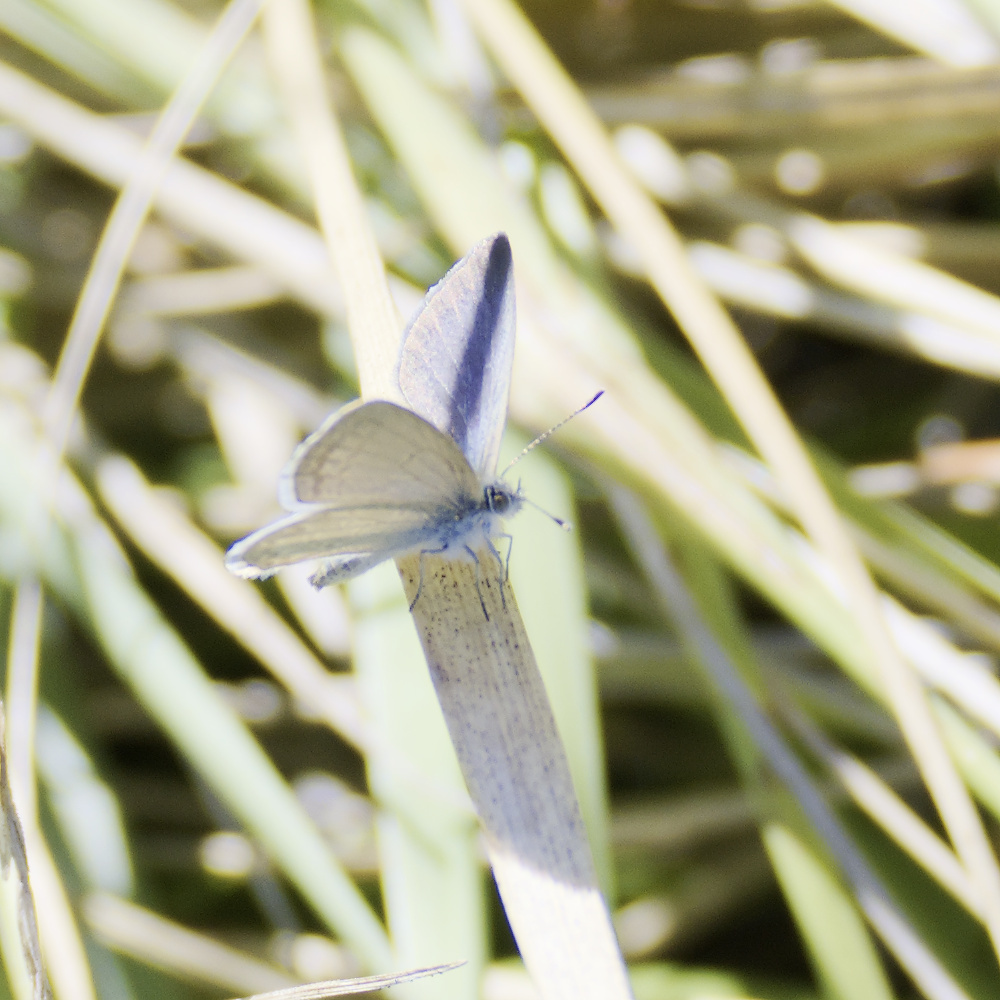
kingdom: Animalia
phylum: Arthropoda
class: Insecta
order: Lepidoptera
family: Lycaenidae
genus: Zizina
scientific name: Zizina labradus
